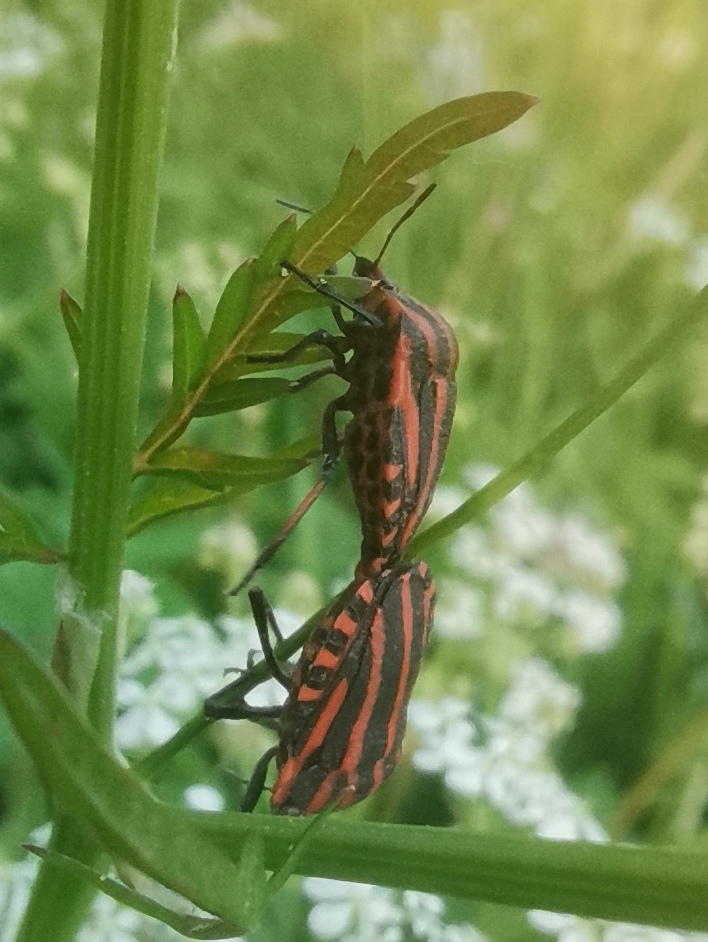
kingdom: Animalia
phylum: Arthropoda
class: Insecta
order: Hemiptera
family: Pentatomidae
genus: Graphosoma
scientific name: Graphosoma italicum
